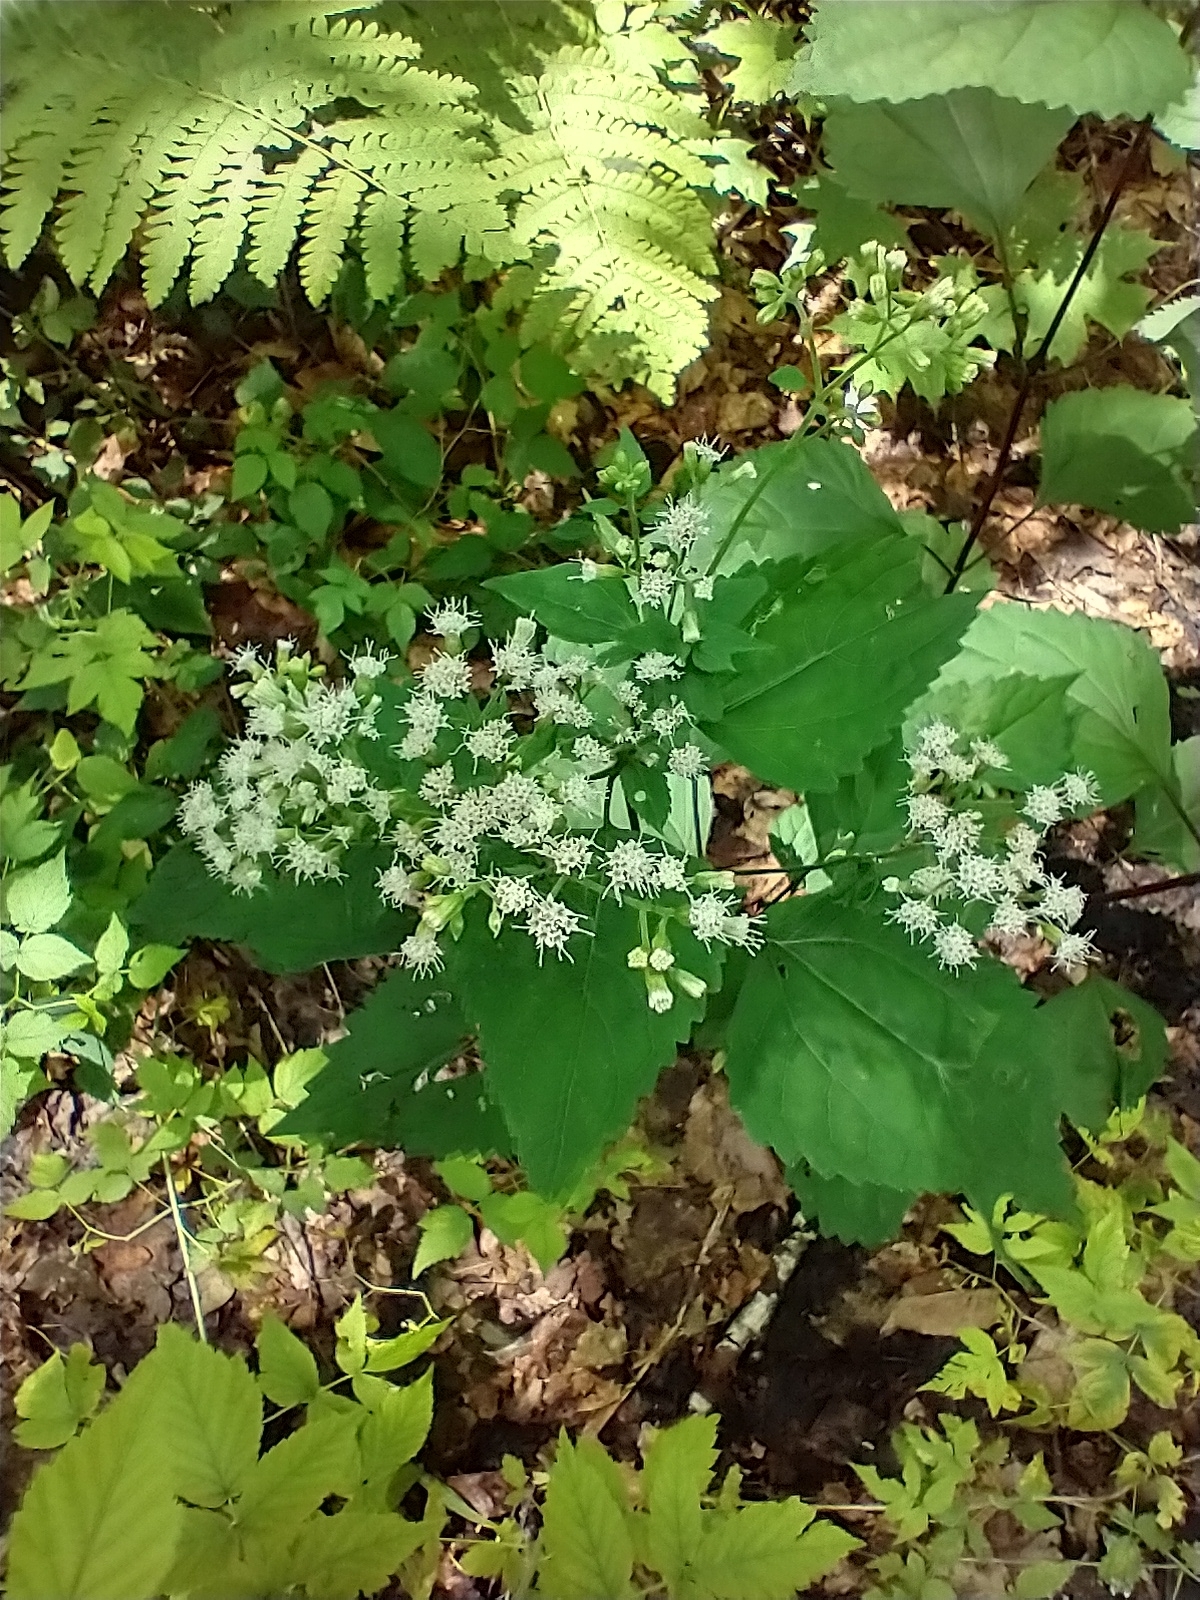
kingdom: Plantae
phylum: Tracheophyta
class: Magnoliopsida
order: Asterales
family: Asteraceae
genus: Ageratina
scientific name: Ageratina altissima
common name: White snakeroot
